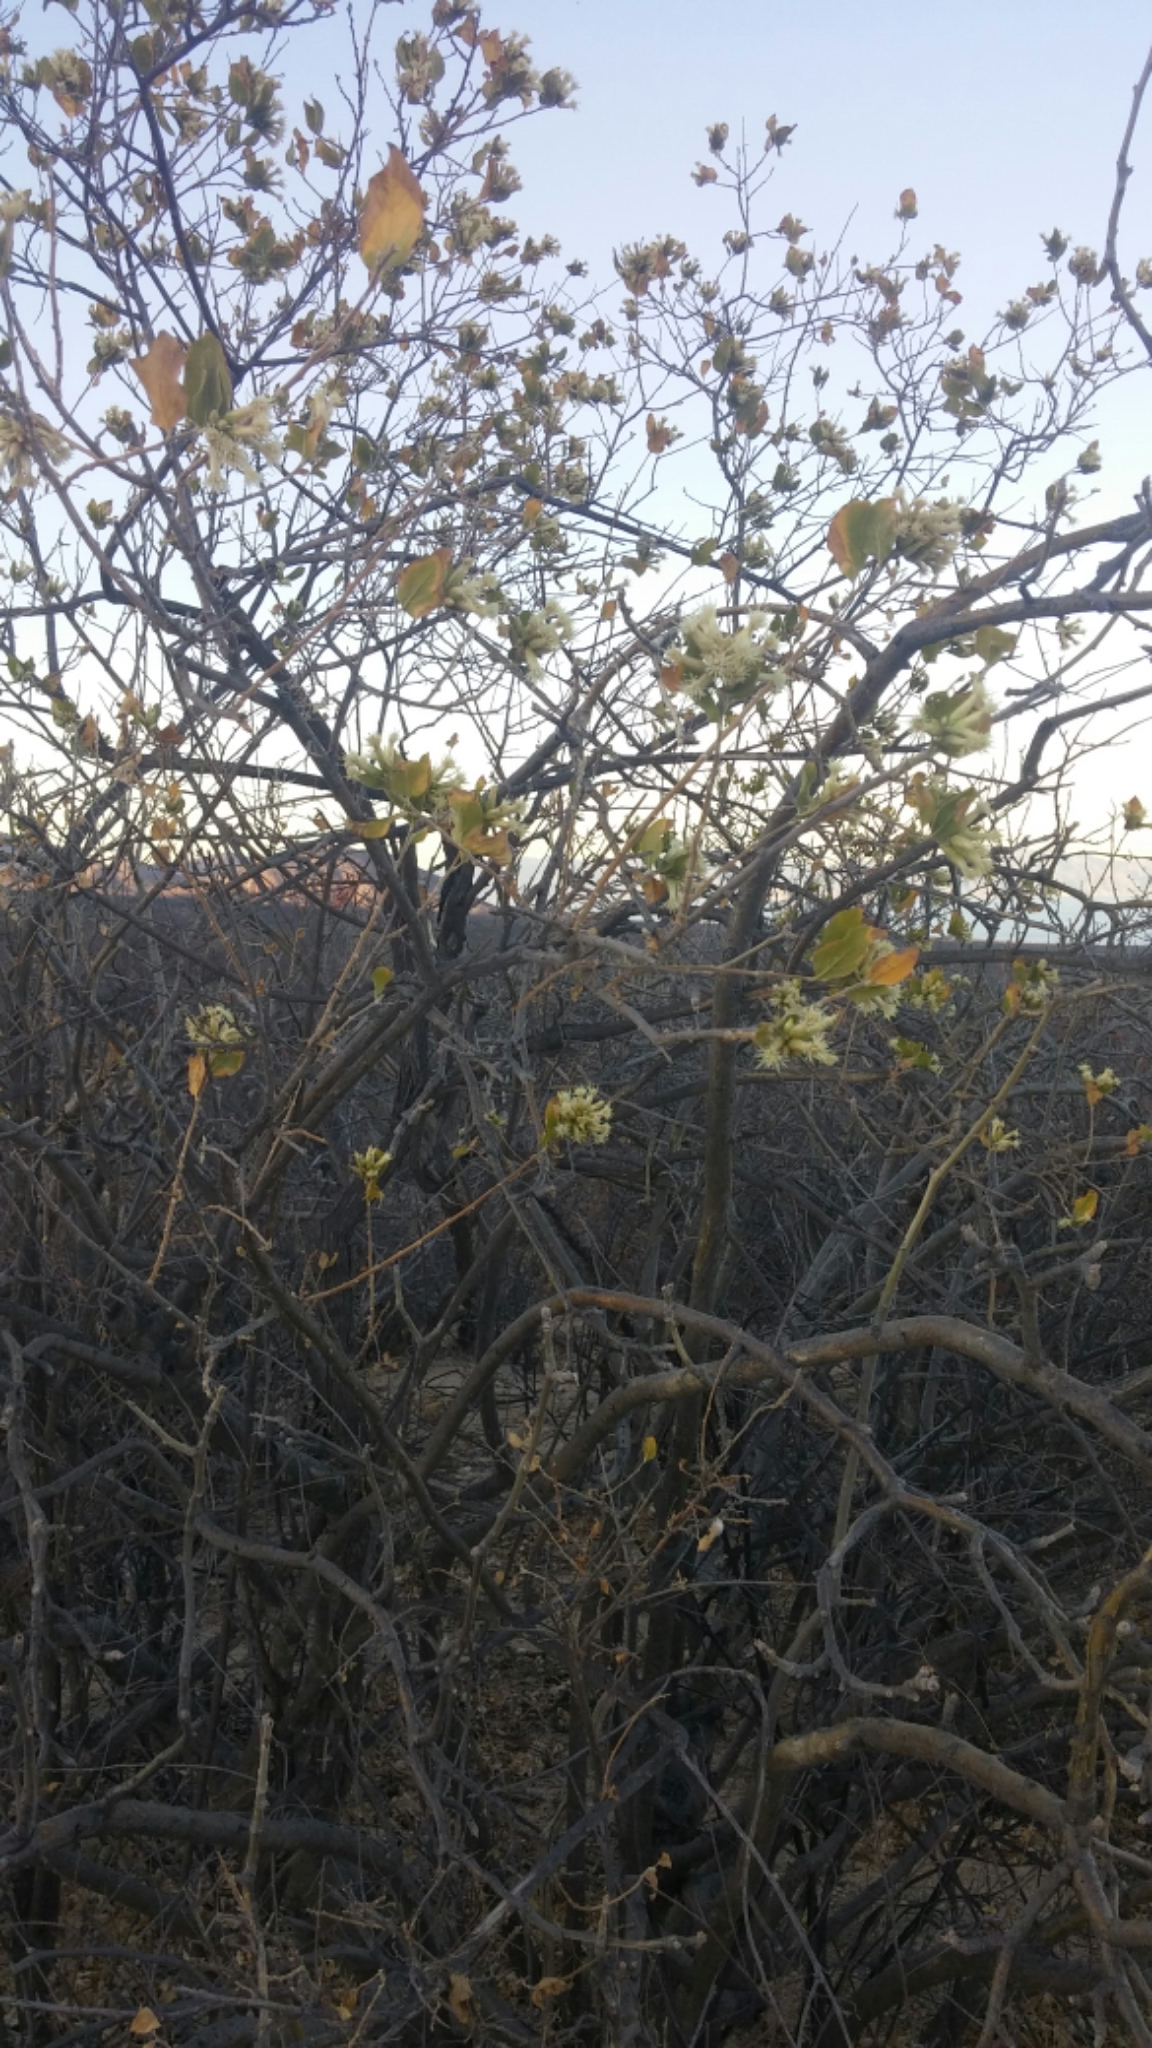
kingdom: Plantae
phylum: Tracheophyta
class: Magnoliopsida
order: Asterales
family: Asteraceae
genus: Nahuatlea
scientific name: Nahuatlea arborescens
